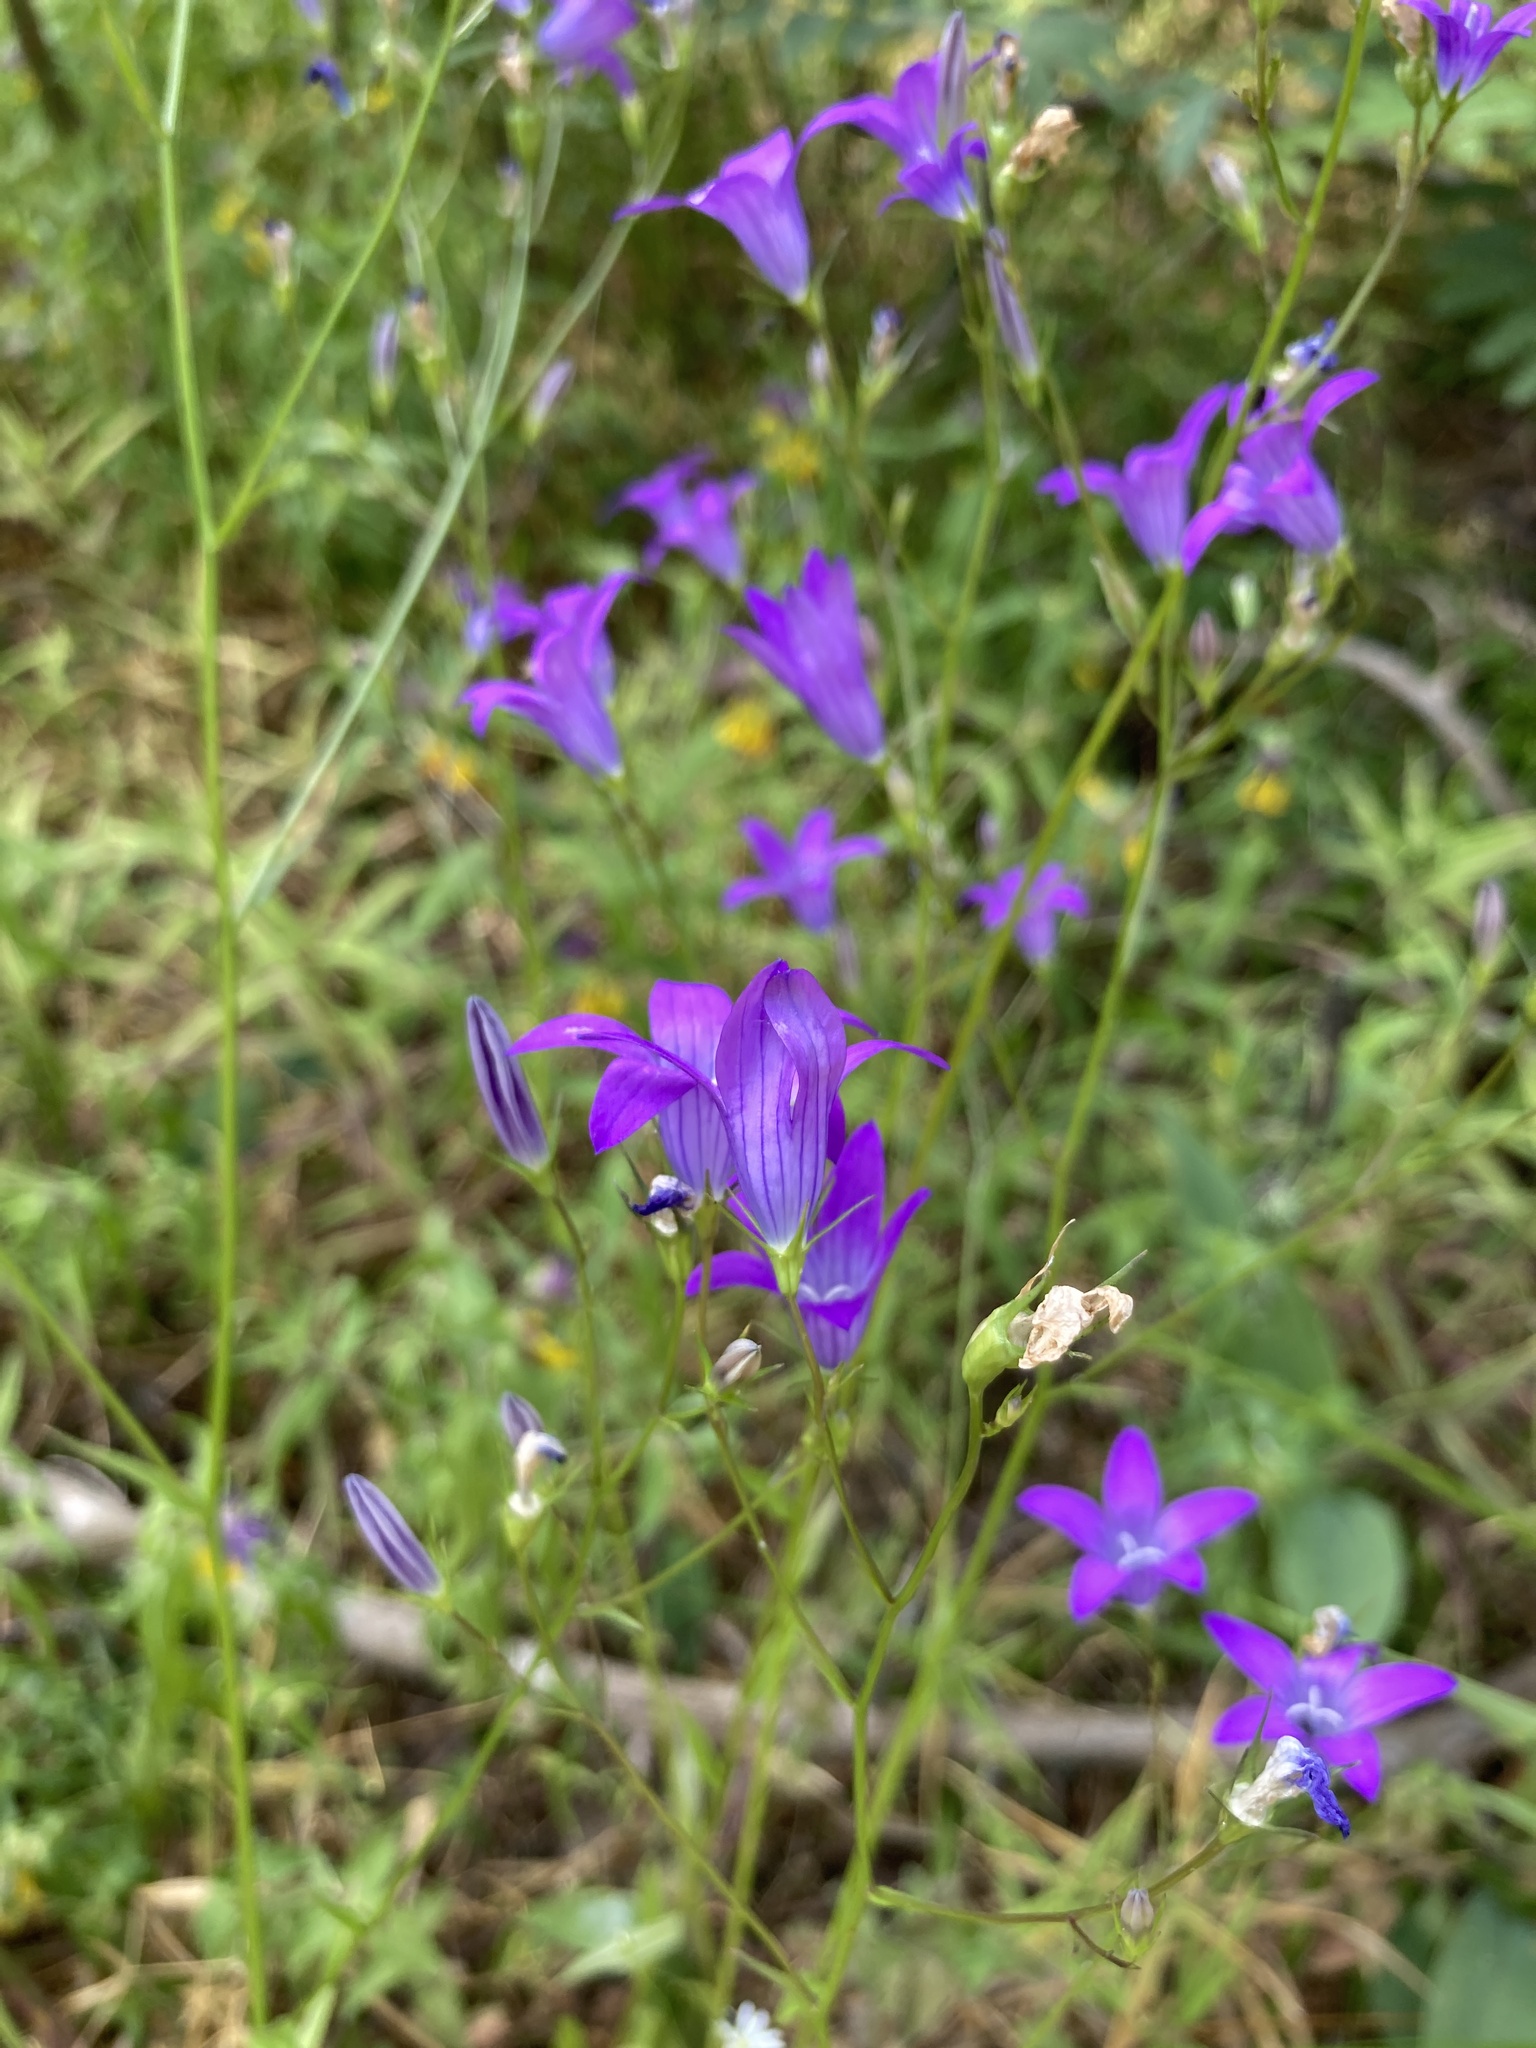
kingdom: Plantae
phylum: Tracheophyta
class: Magnoliopsida
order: Asterales
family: Campanulaceae
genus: Campanula
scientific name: Campanula patula
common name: Spreading bellflower
